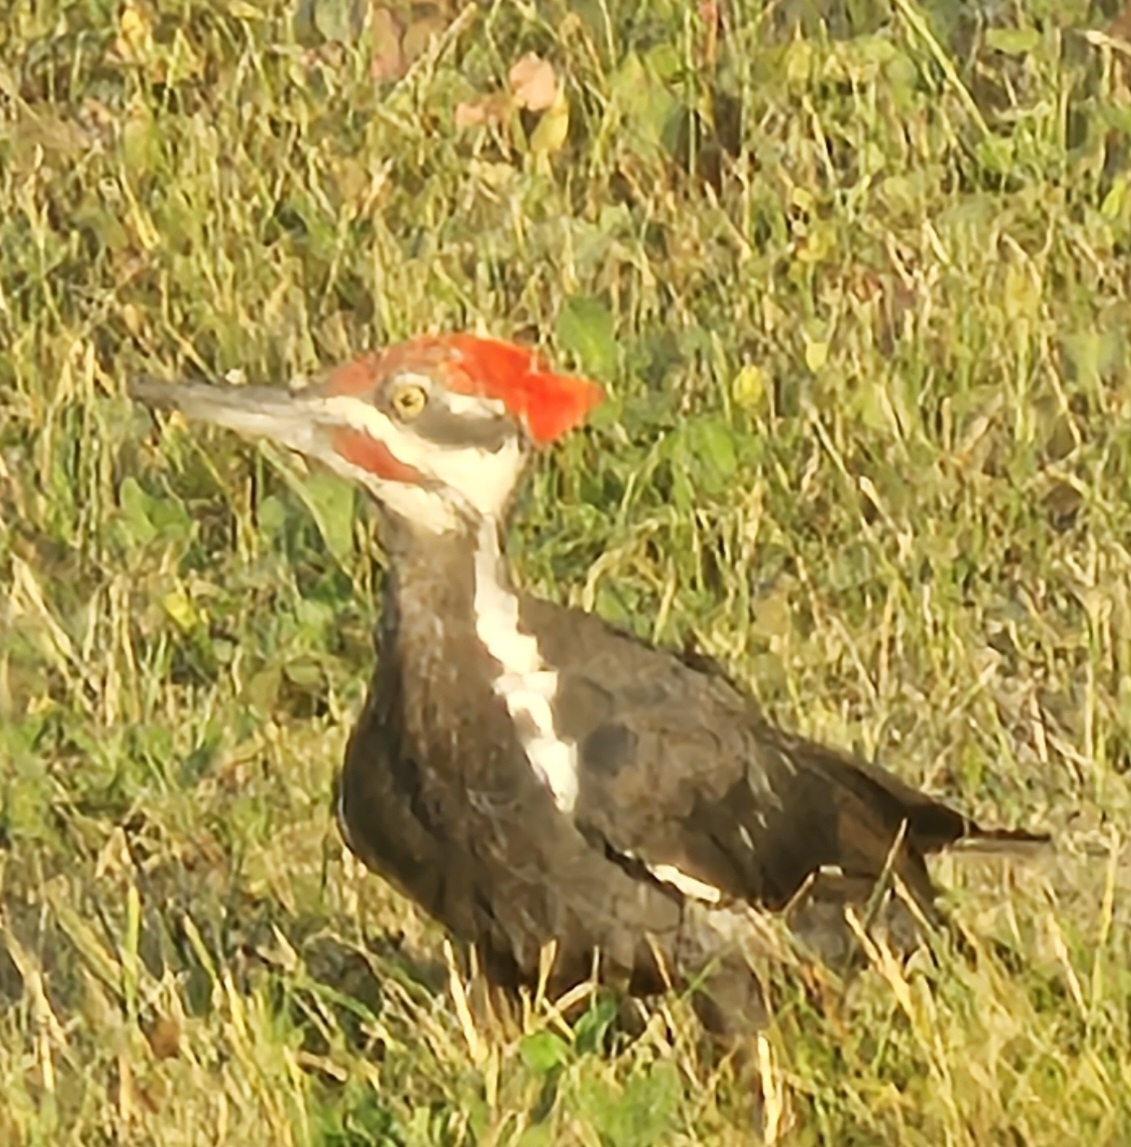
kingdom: Animalia
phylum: Chordata
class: Aves
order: Piciformes
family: Picidae
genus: Dryocopus
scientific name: Dryocopus pileatus
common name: Pileated woodpecker
